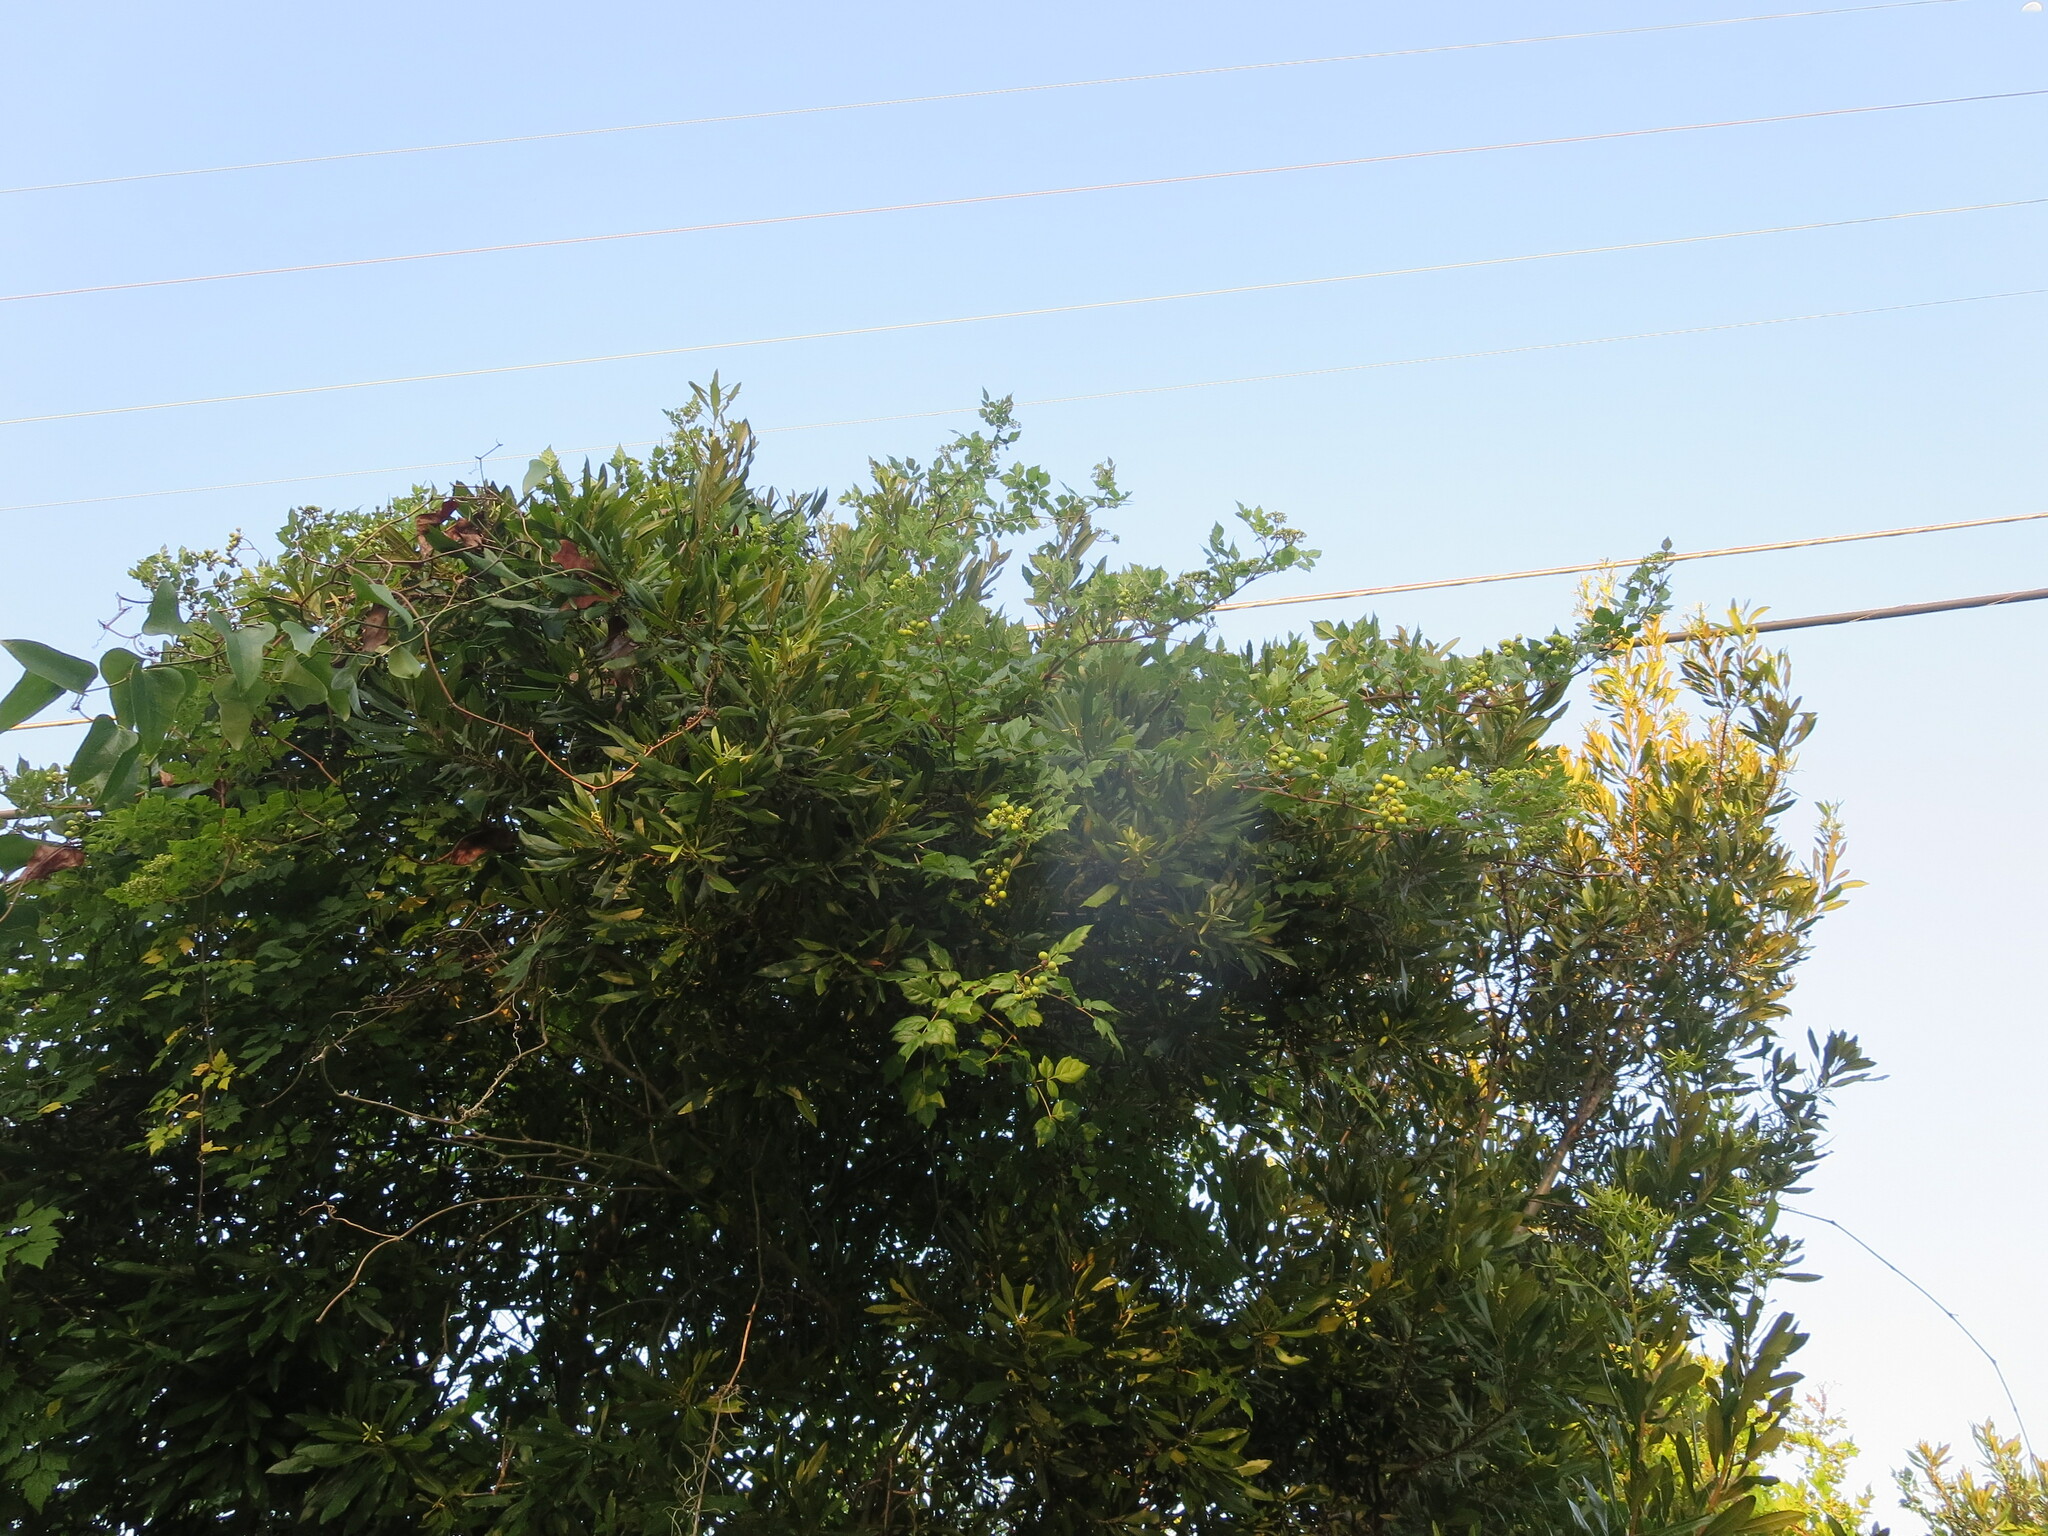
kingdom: Plantae
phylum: Tracheophyta
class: Magnoliopsida
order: Vitales
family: Vitaceae
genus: Nekemias
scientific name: Nekemias arborea
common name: Peppervine
